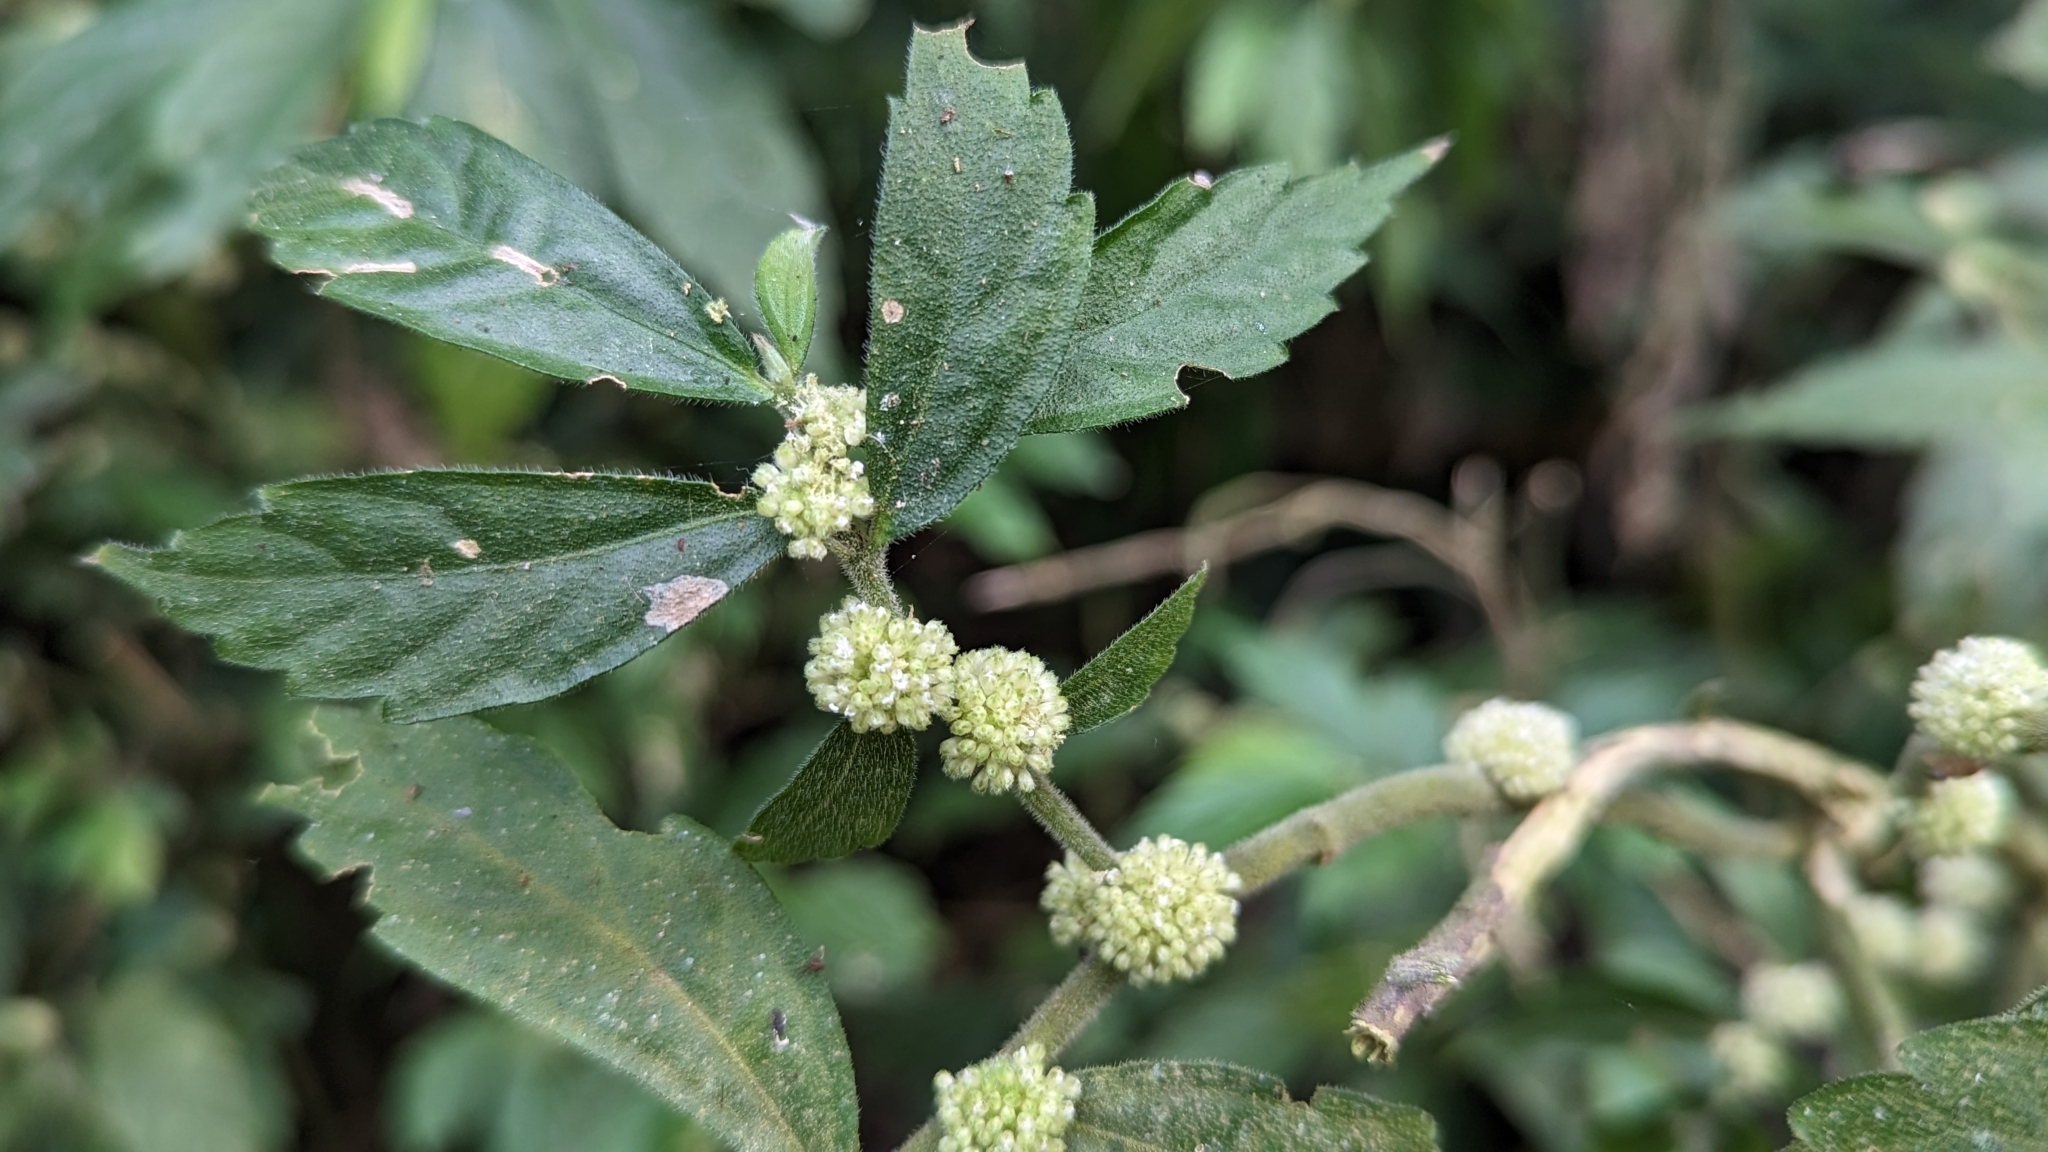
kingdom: Plantae
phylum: Tracheophyta
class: Magnoliopsida
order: Rosales
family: Urticaceae
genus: Elatostema
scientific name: Elatostema lineolatum
